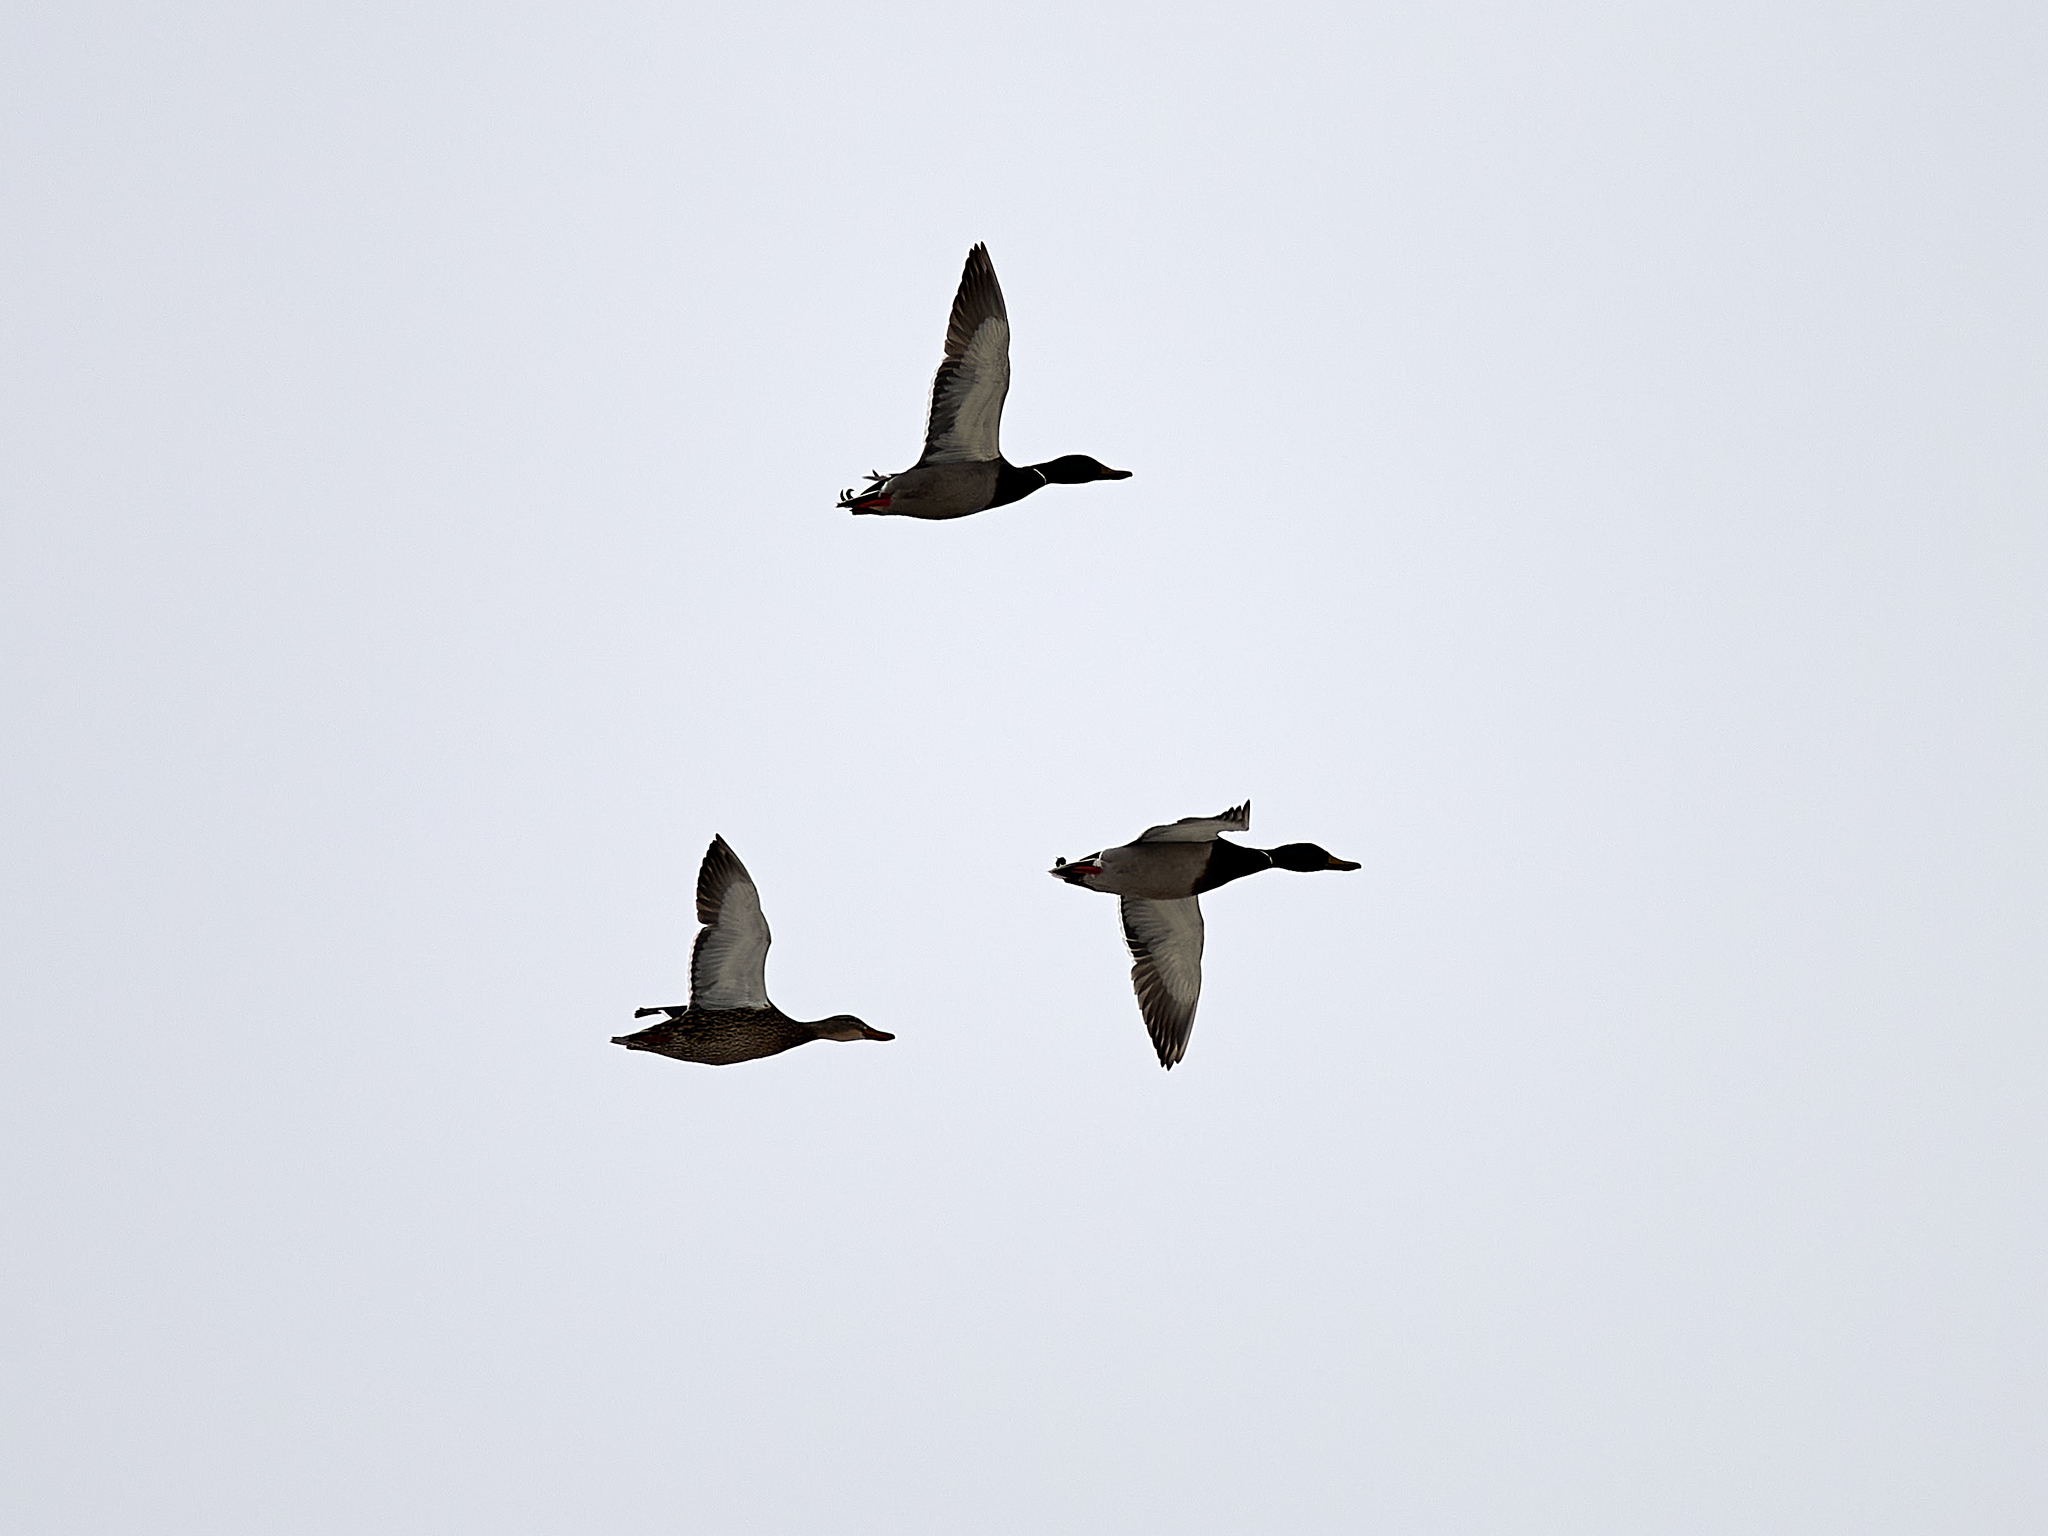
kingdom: Animalia
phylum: Chordata
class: Aves
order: Anseriformes
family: Anatidae
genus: Anas
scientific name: Anas platyrhynchos
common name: Mallard
